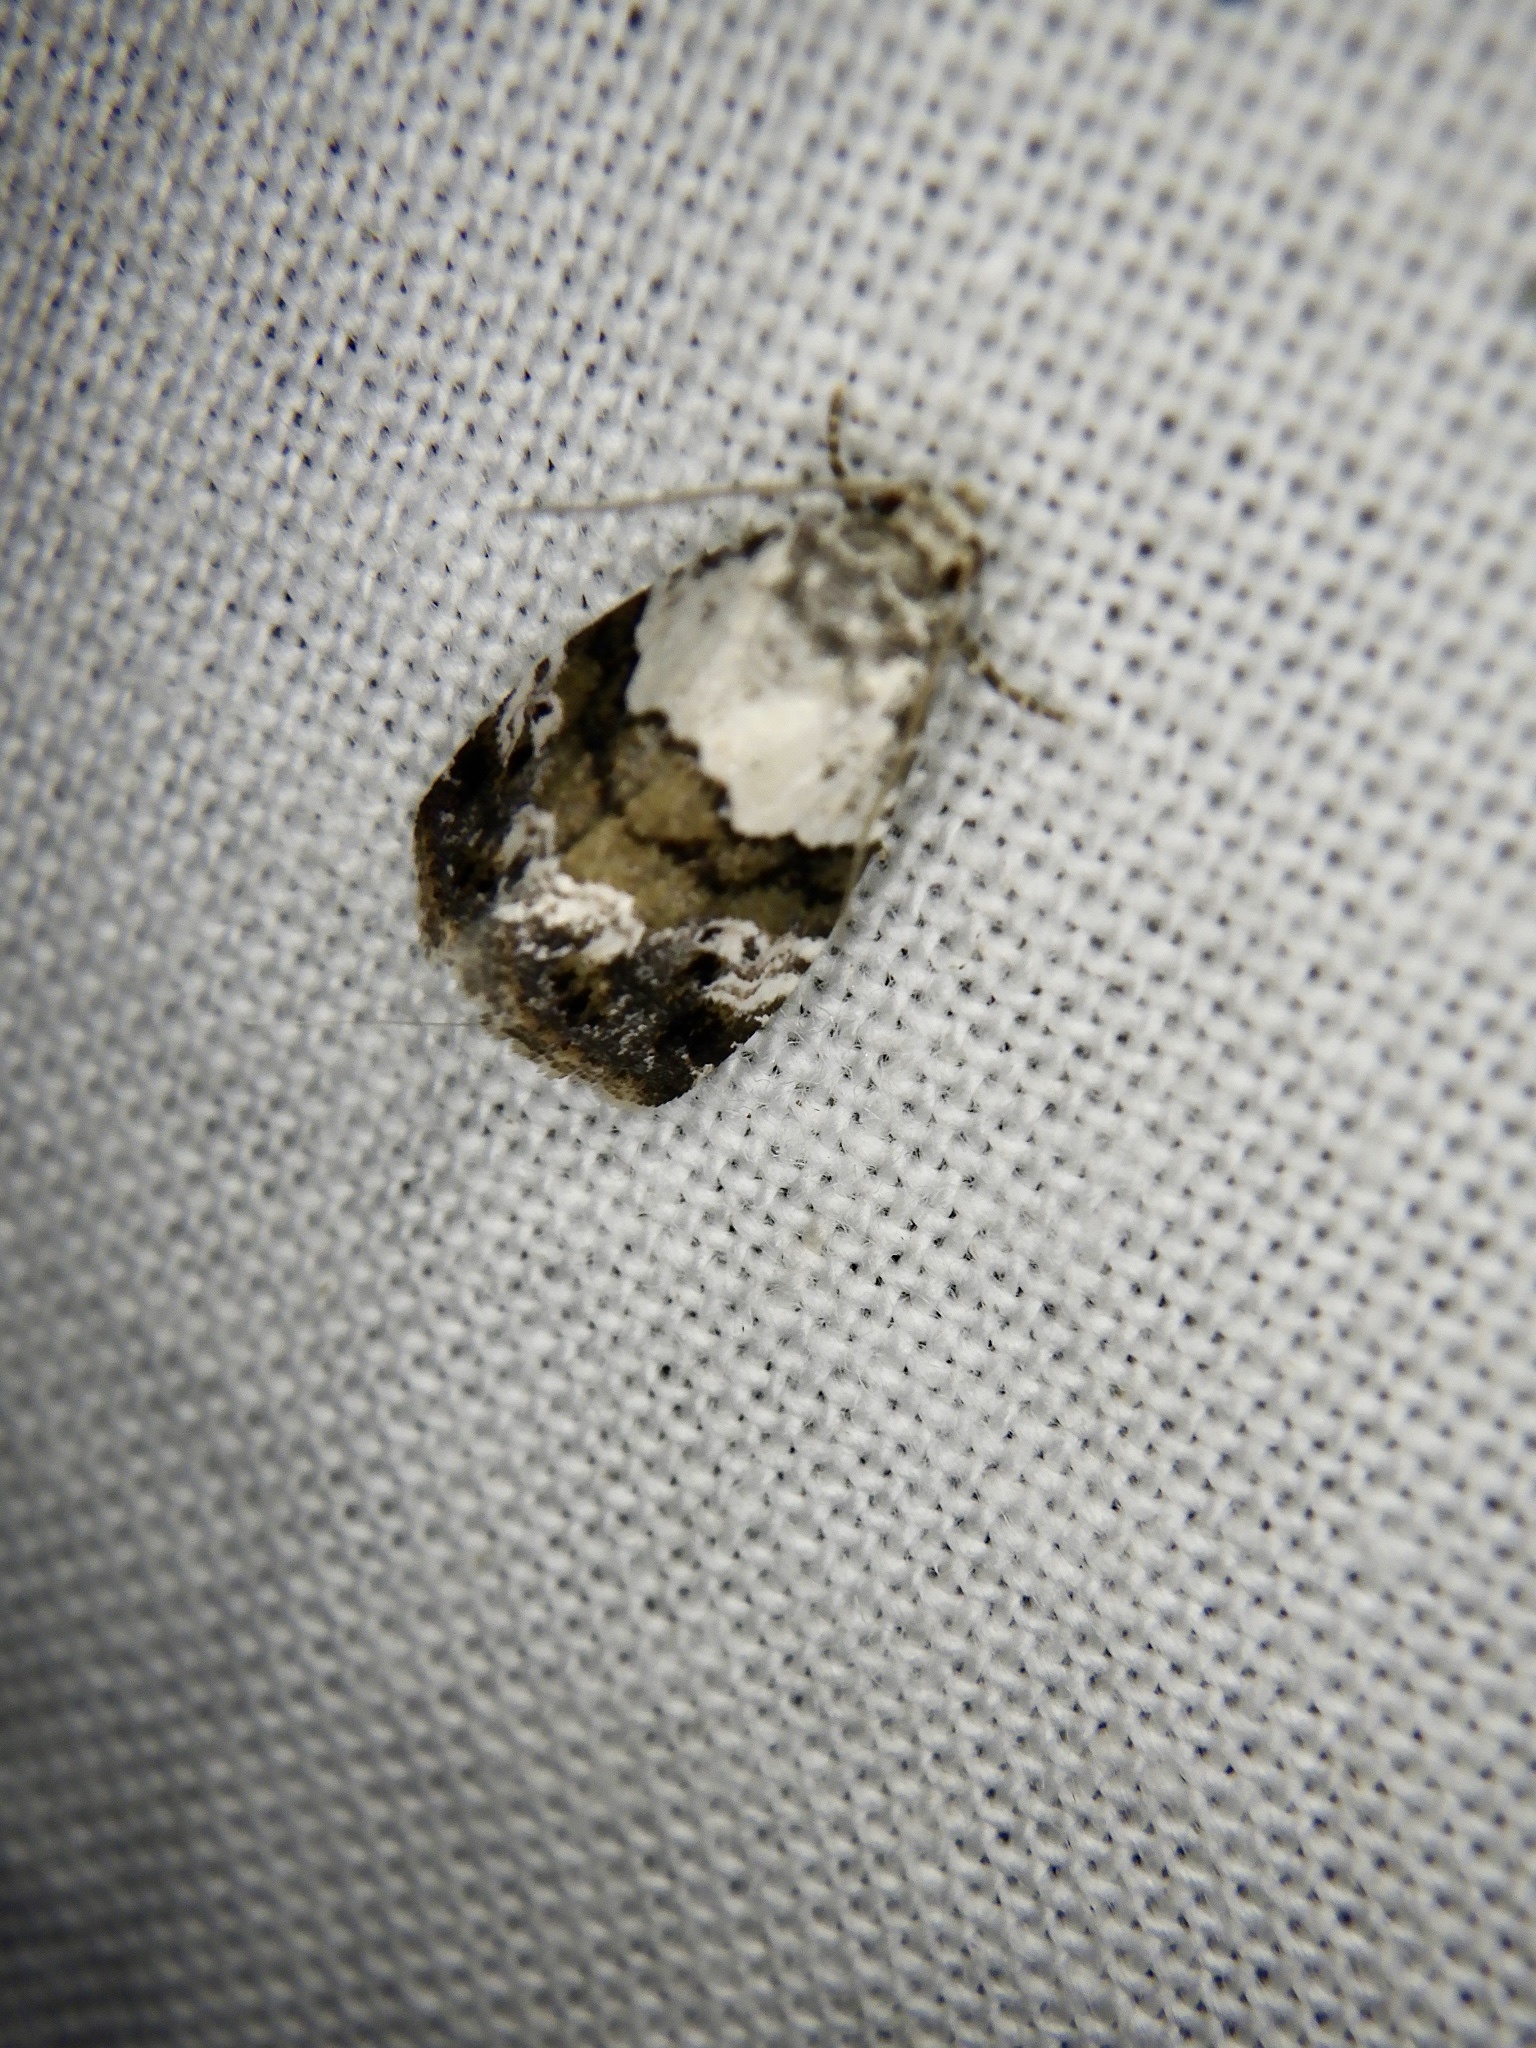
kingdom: Animalia
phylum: Arthropoda
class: Insecta
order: Lepidoptera
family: Noctuidae
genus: Maliattha
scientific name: Maliattha signifera
